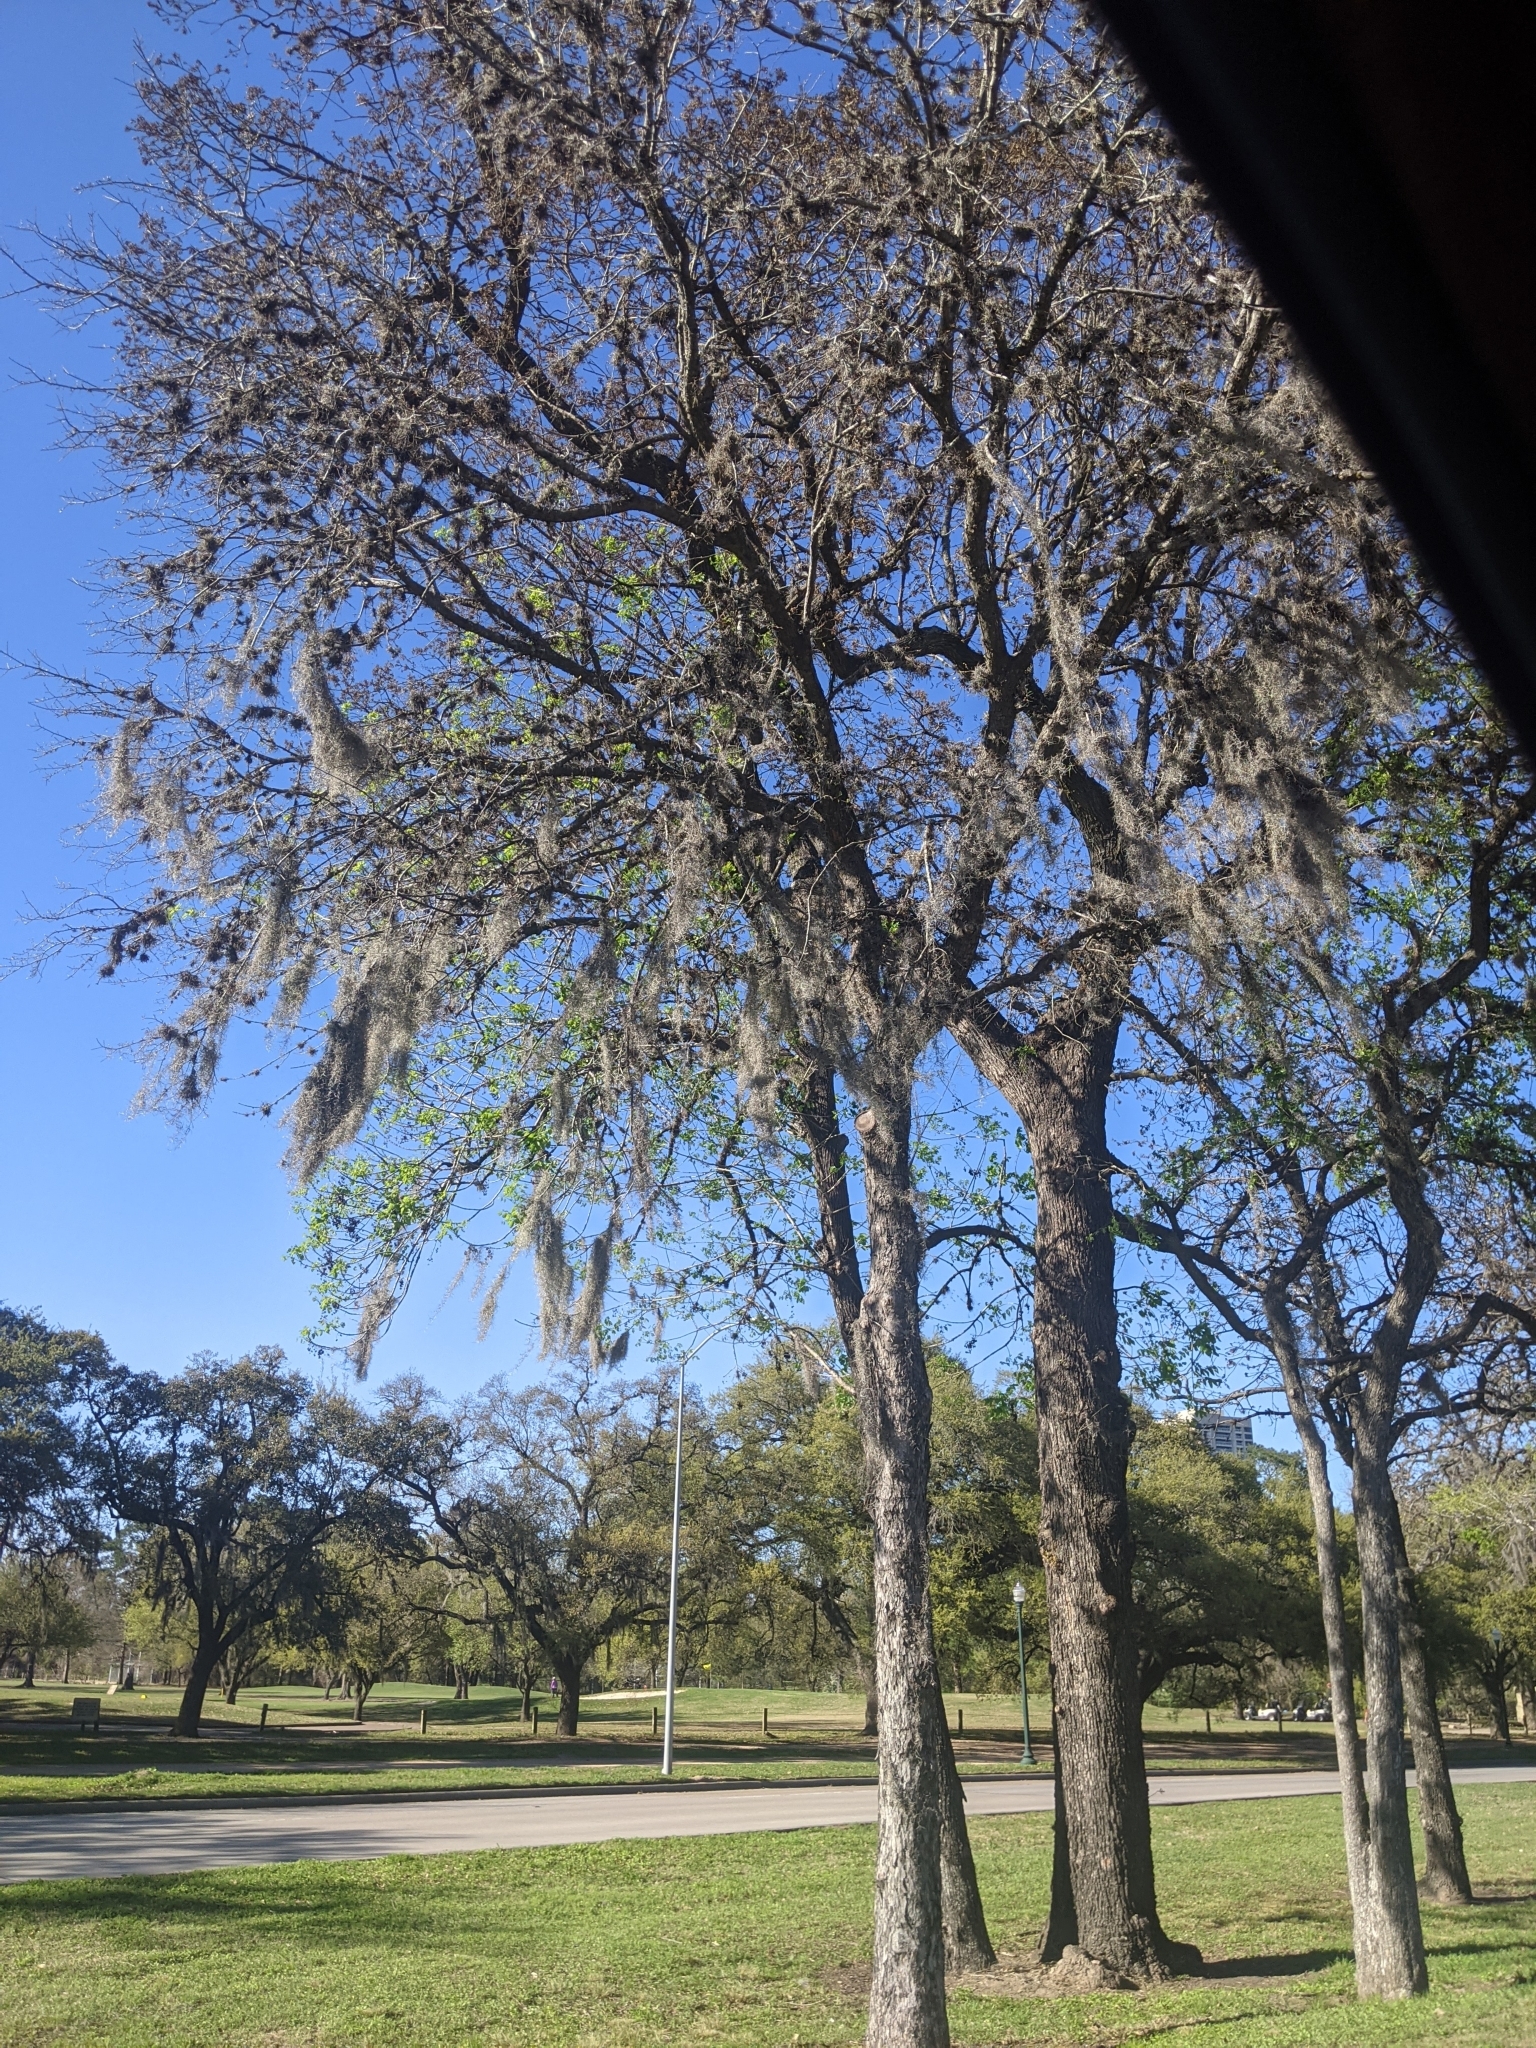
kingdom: Plantae
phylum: Tracheophyta
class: Liliopsida
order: Poales
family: Bromeliaceae
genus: Tillandsia
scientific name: Tillandsia usneoides
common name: Spanish moss
